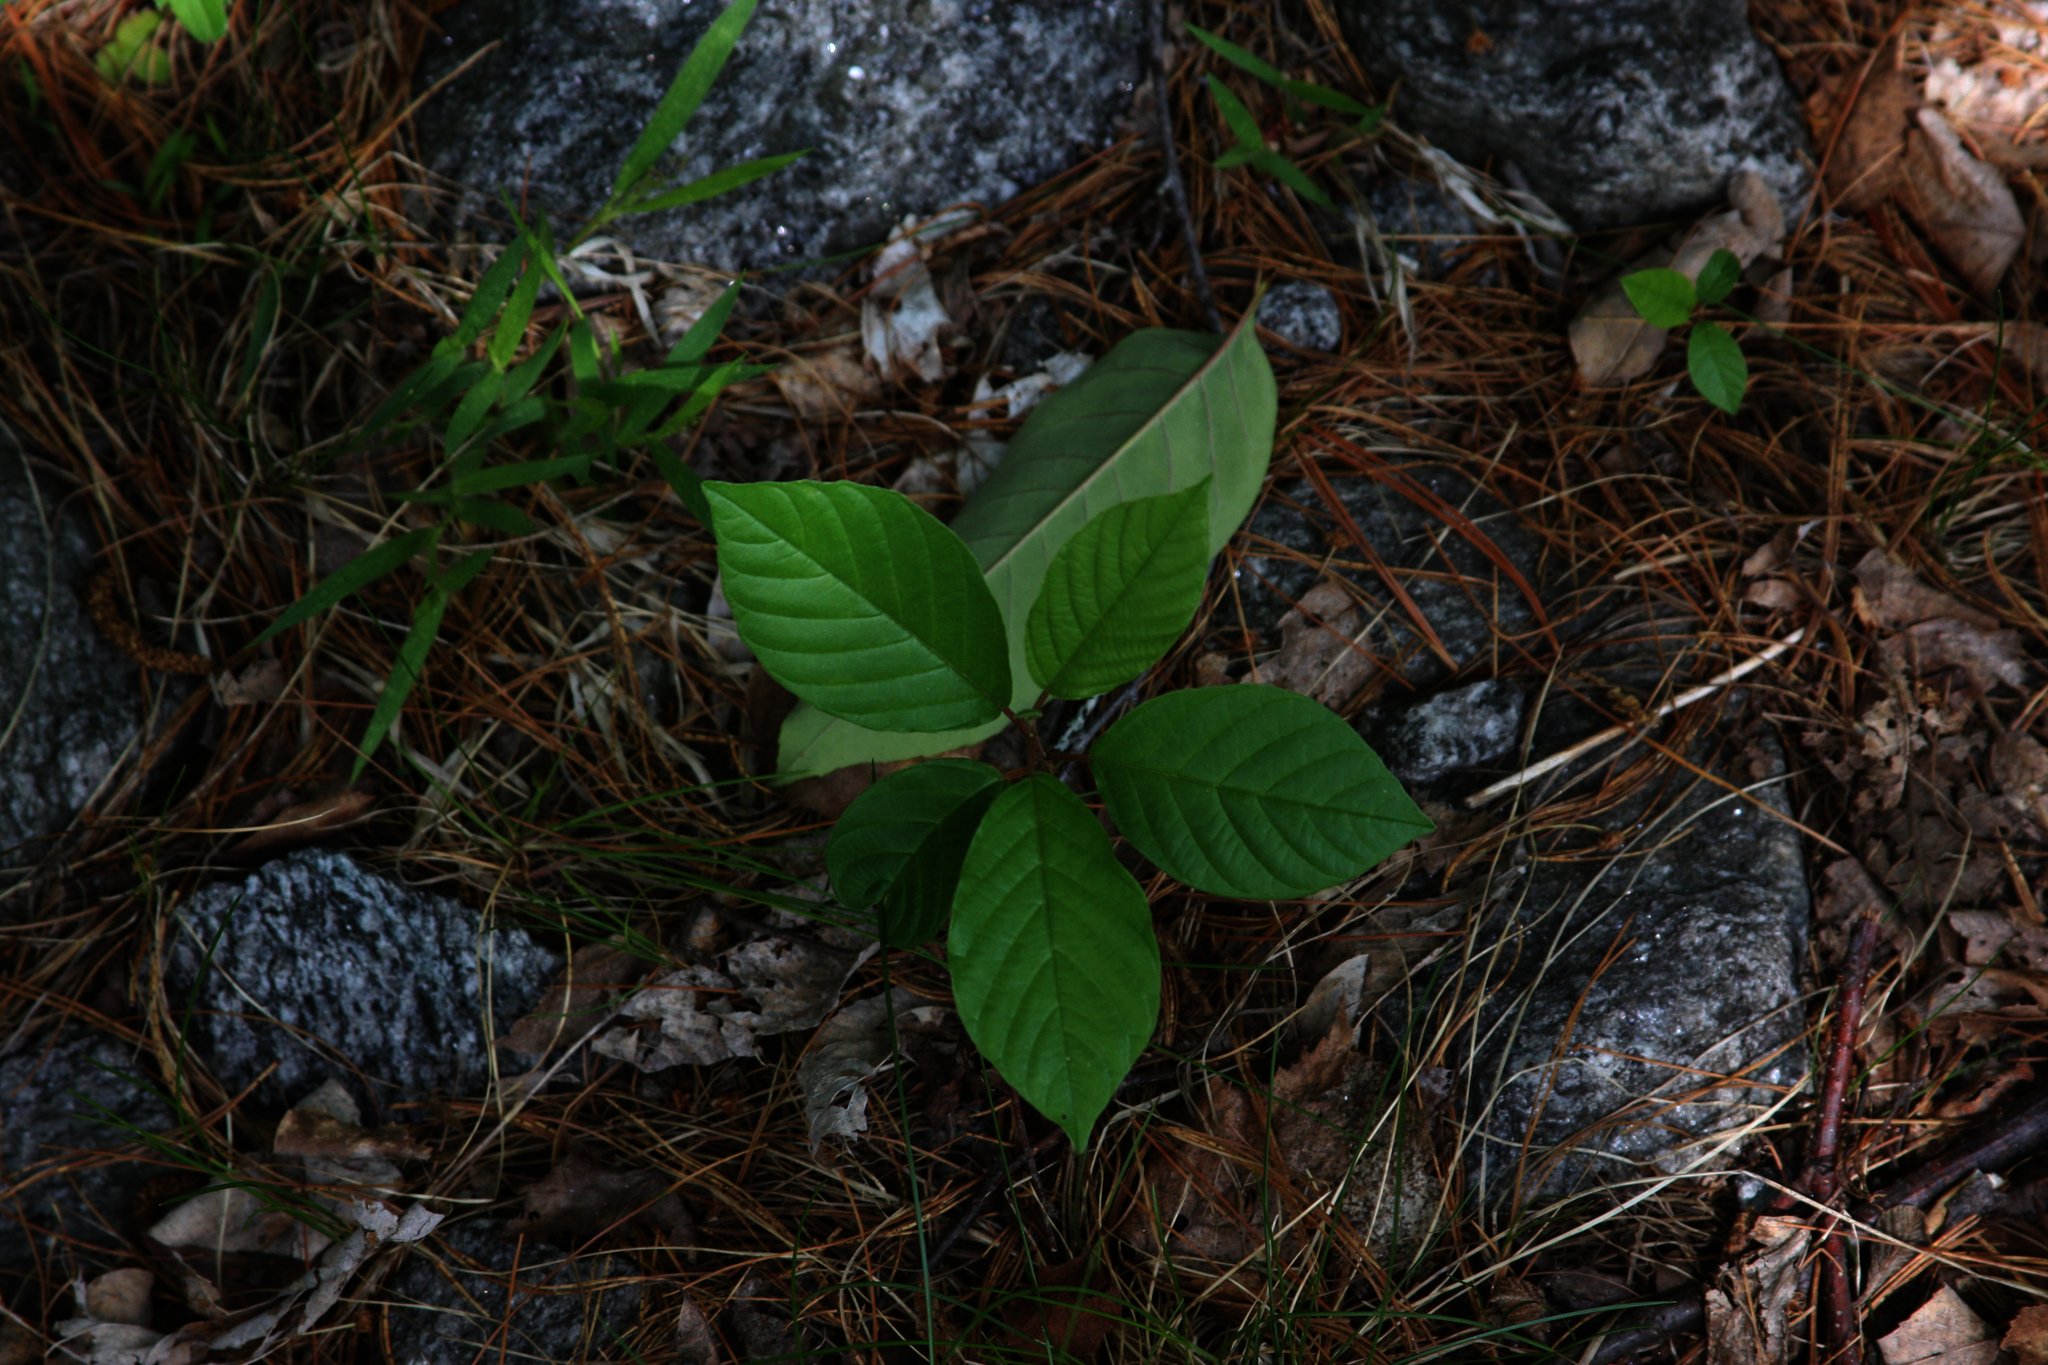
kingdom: Plantae
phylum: Tracheophyta
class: Magnoliopsida
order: Rosales
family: Rhamnaceae
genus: Frangula
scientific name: Frangula alnus
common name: Alder buckthorn
